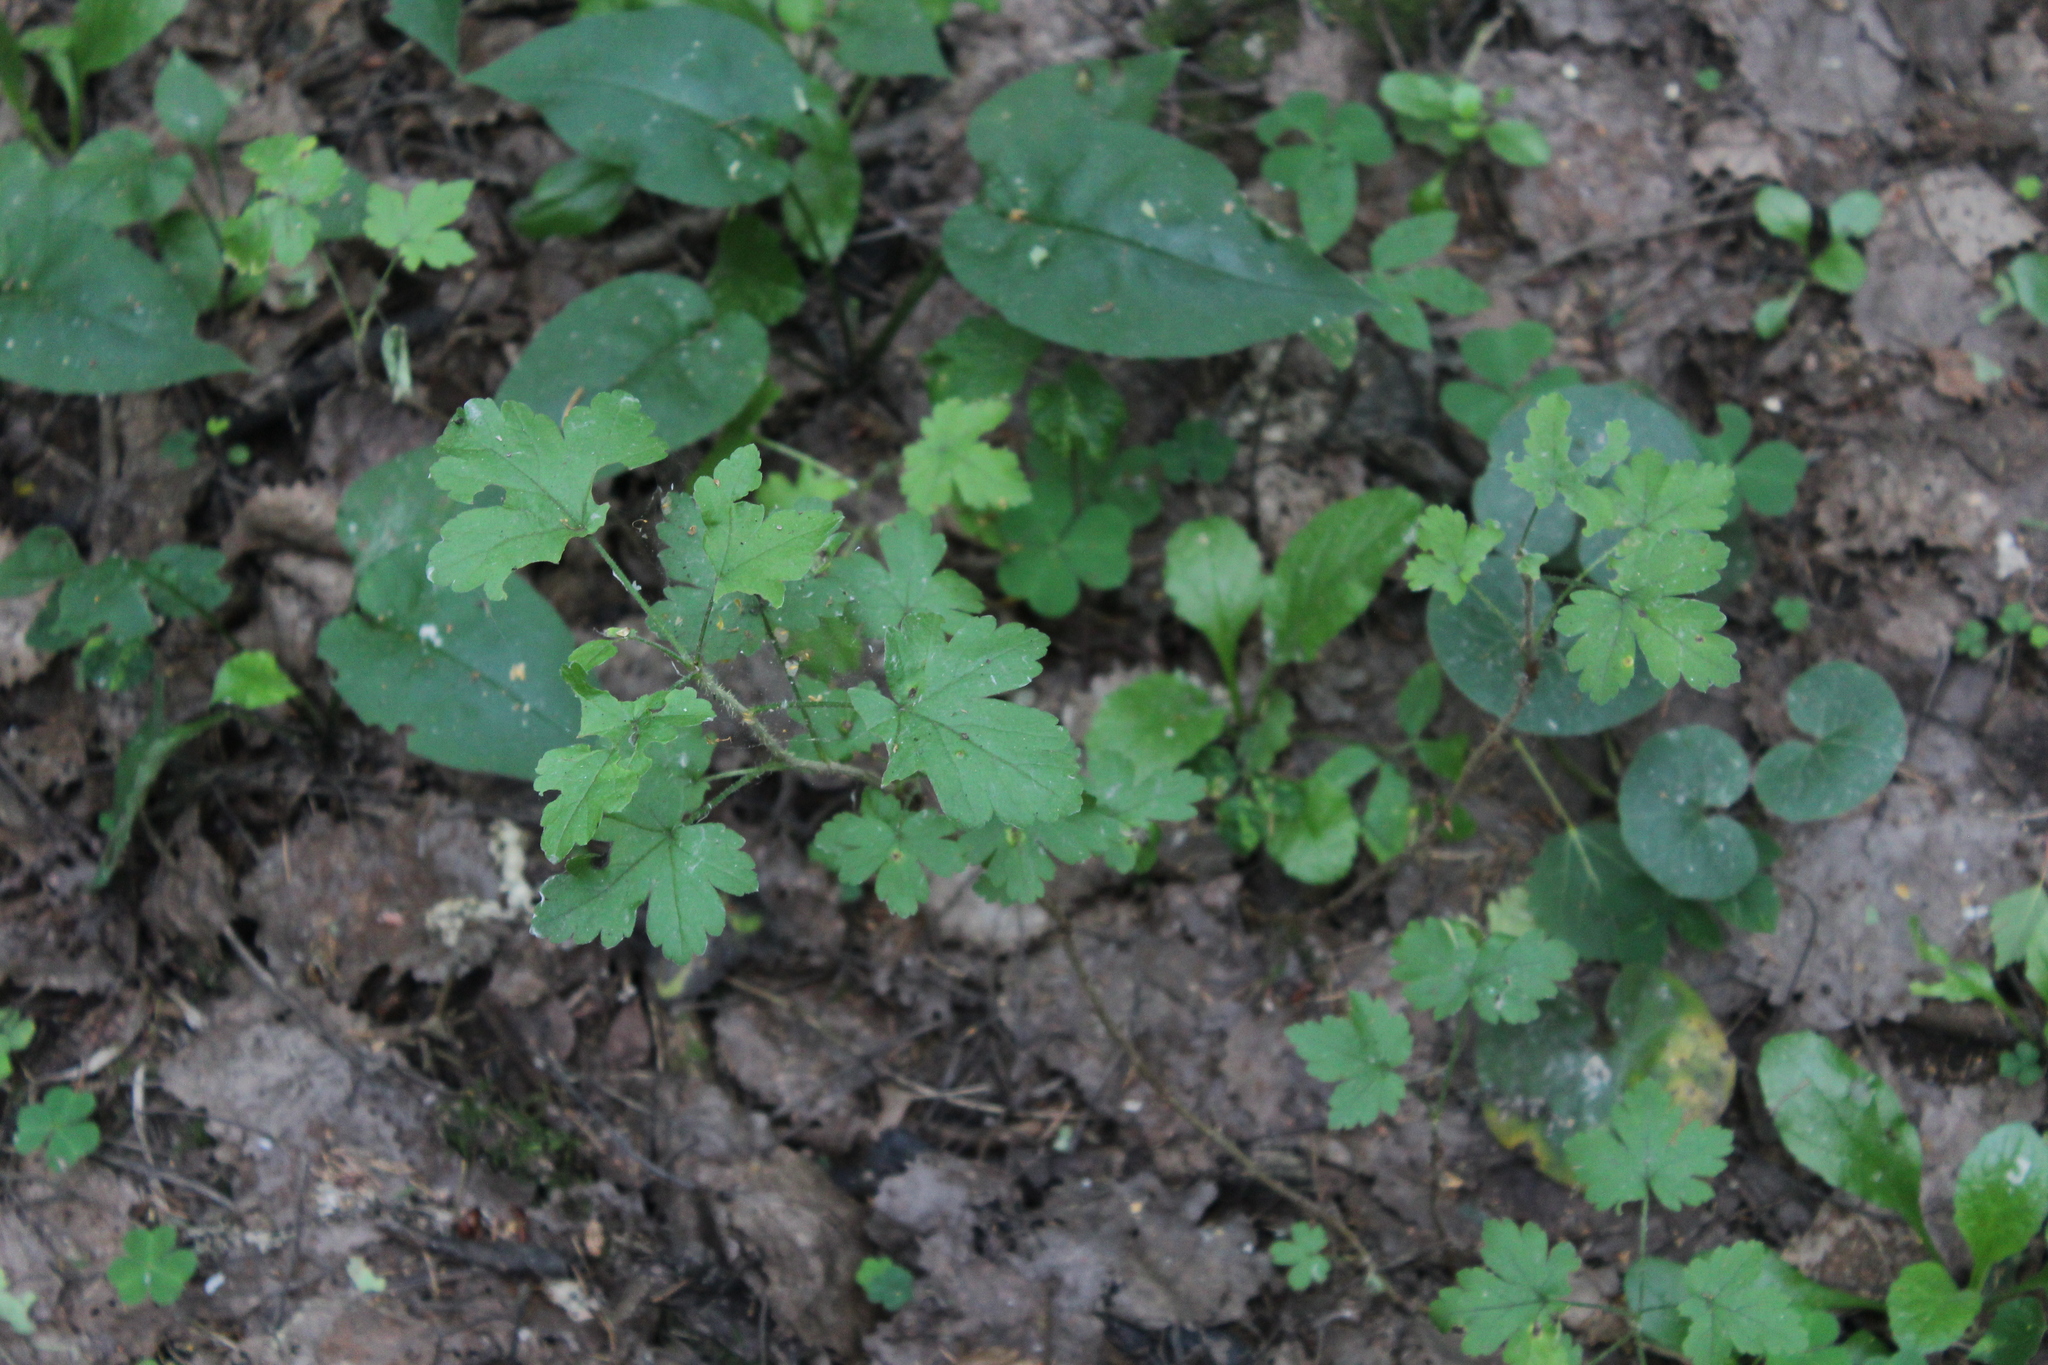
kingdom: Plantae
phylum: Tracheophyta
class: Magnoliopsida
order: Saxifragales
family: Grossulariaceae
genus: Ribes
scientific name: Ribes uva-crispa
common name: Gooseberry
